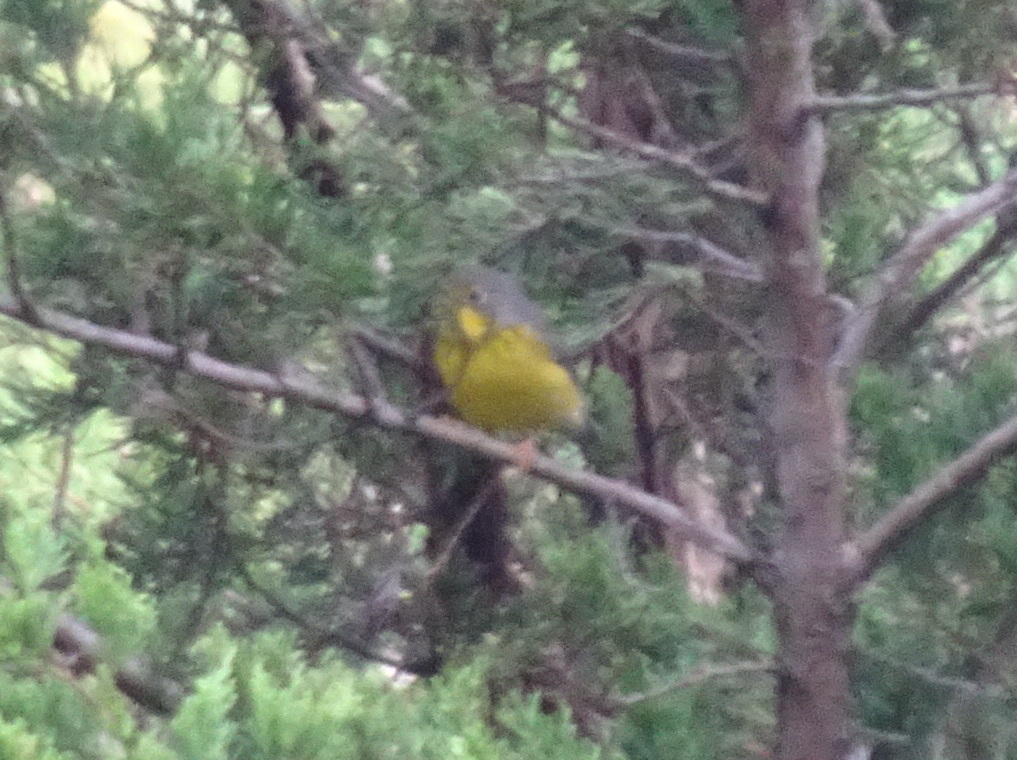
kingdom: Animalia
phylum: Chordata
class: Aves
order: Passeriformes
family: Parulidae
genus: Cardellina
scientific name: Cardellina canadensis
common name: Canada warbler
